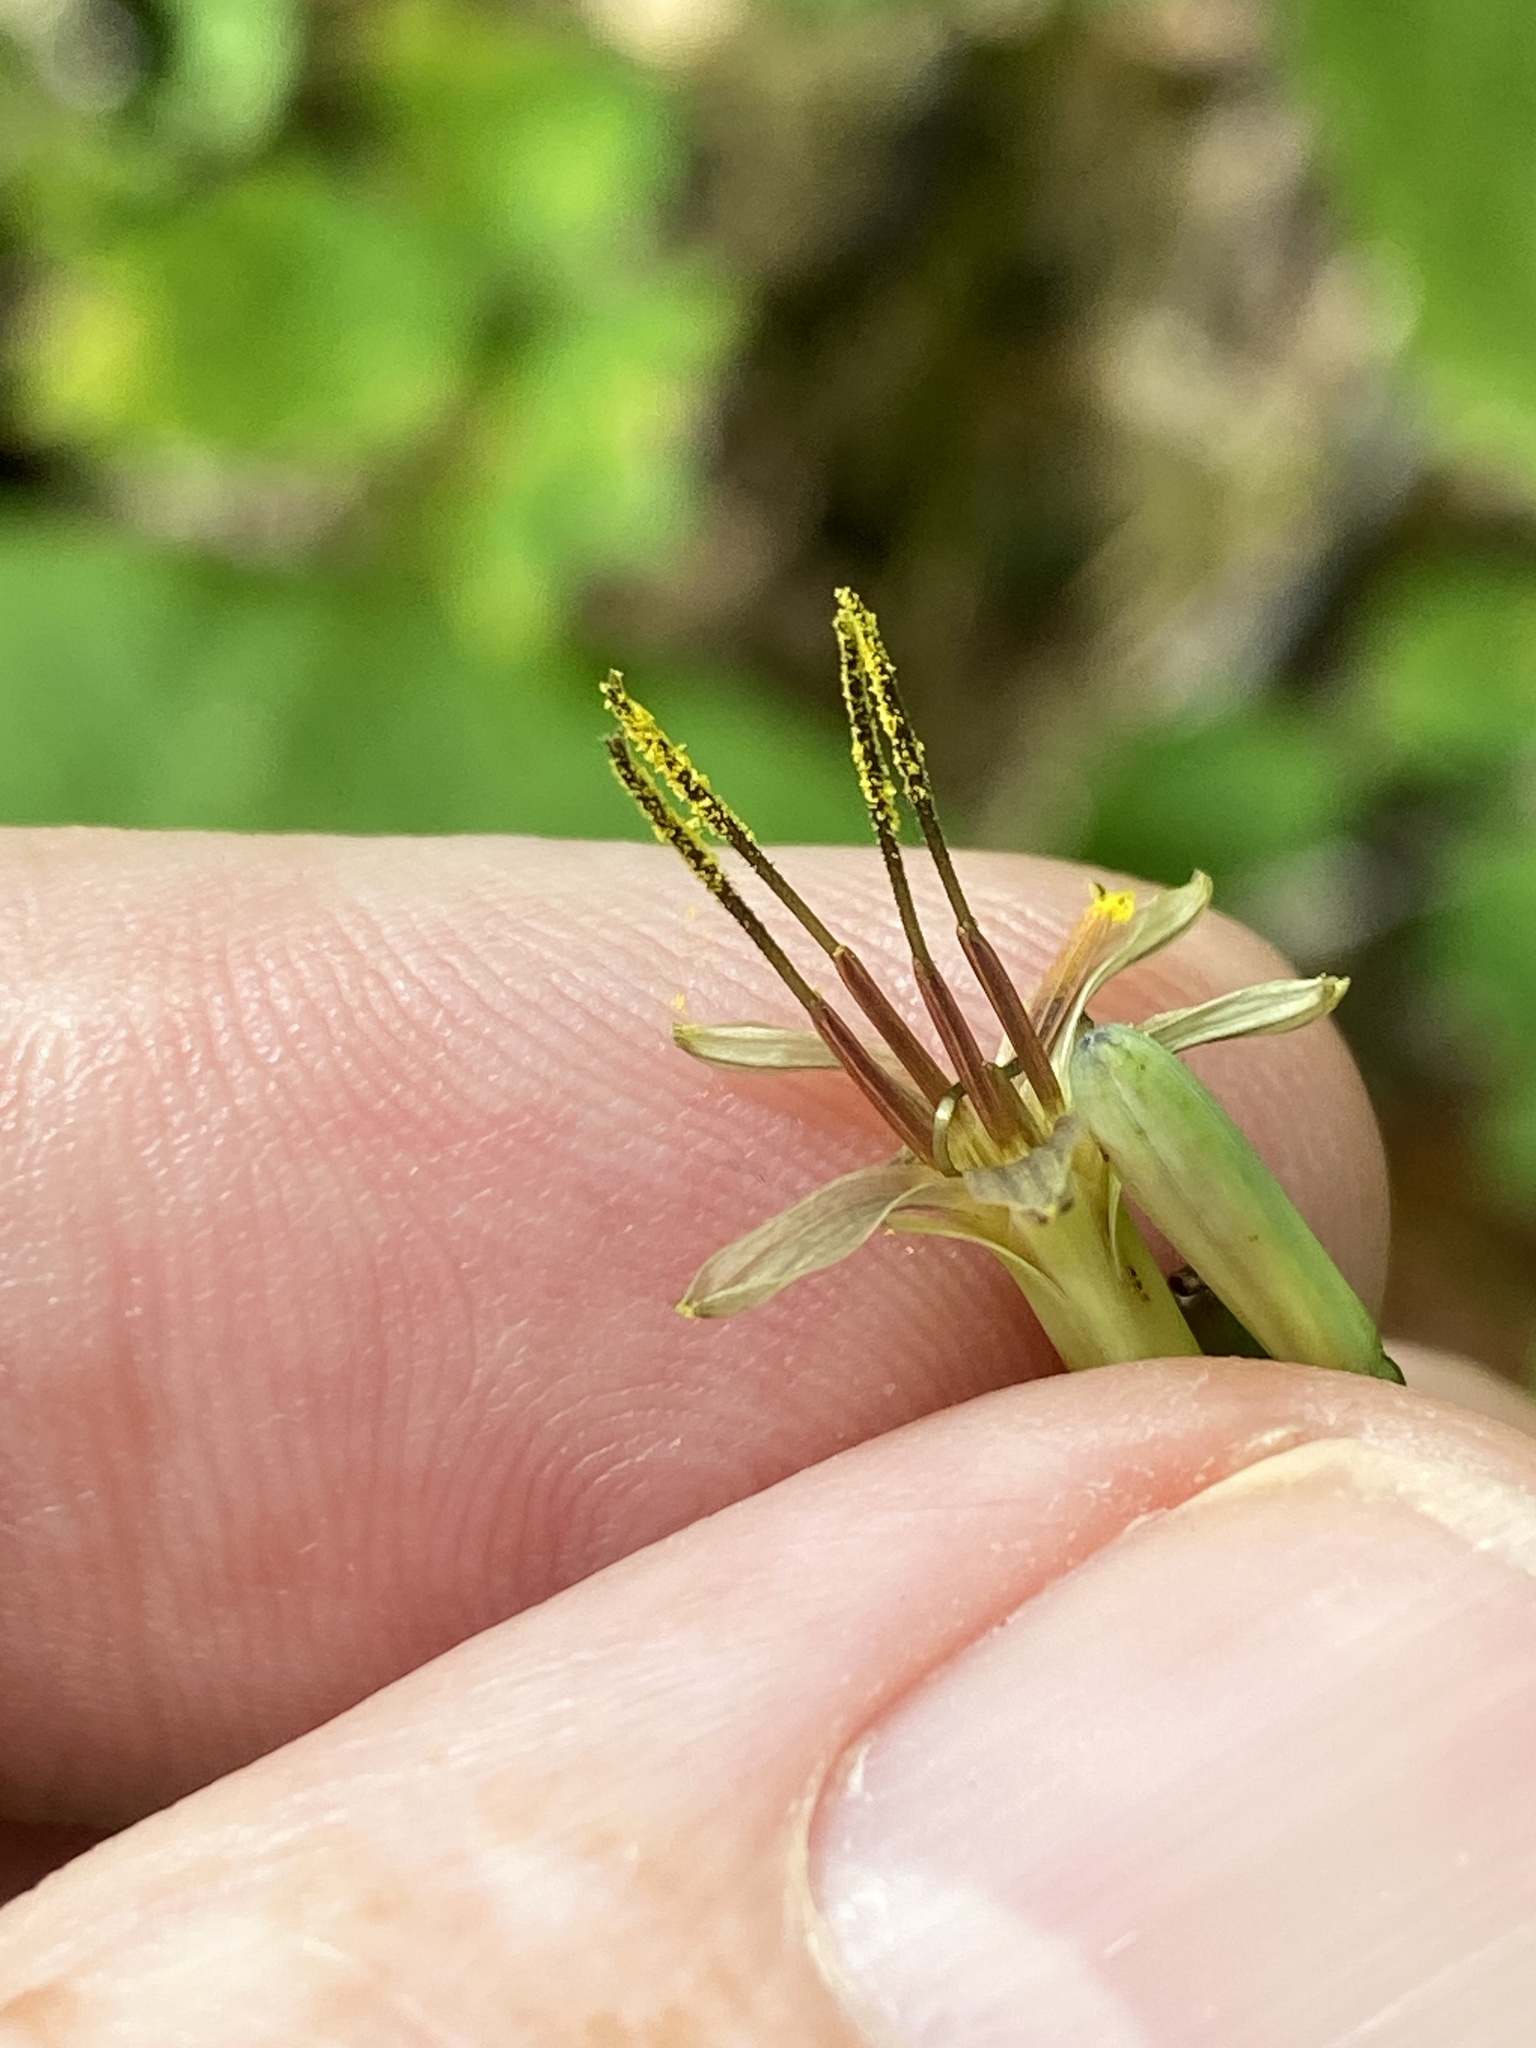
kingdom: Plantae
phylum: Tracheophyta
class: Magnoliopsida
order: Asterales
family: Asteraceae
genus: Nabalus
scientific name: Nabalus altissima
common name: Tall rattlesnakeroot
